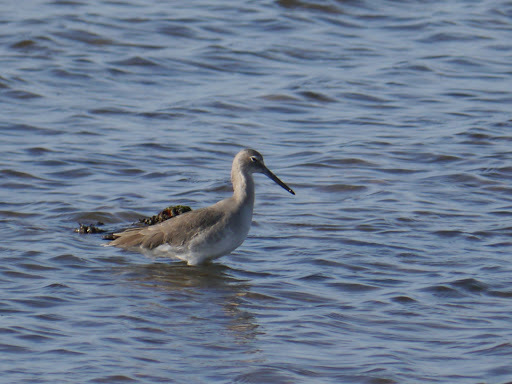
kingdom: Animalia
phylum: Chordata
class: Aves
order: Charadriiformes
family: Scolopacidae
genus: Tringa
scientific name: Tringa semipalmata
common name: Willet
